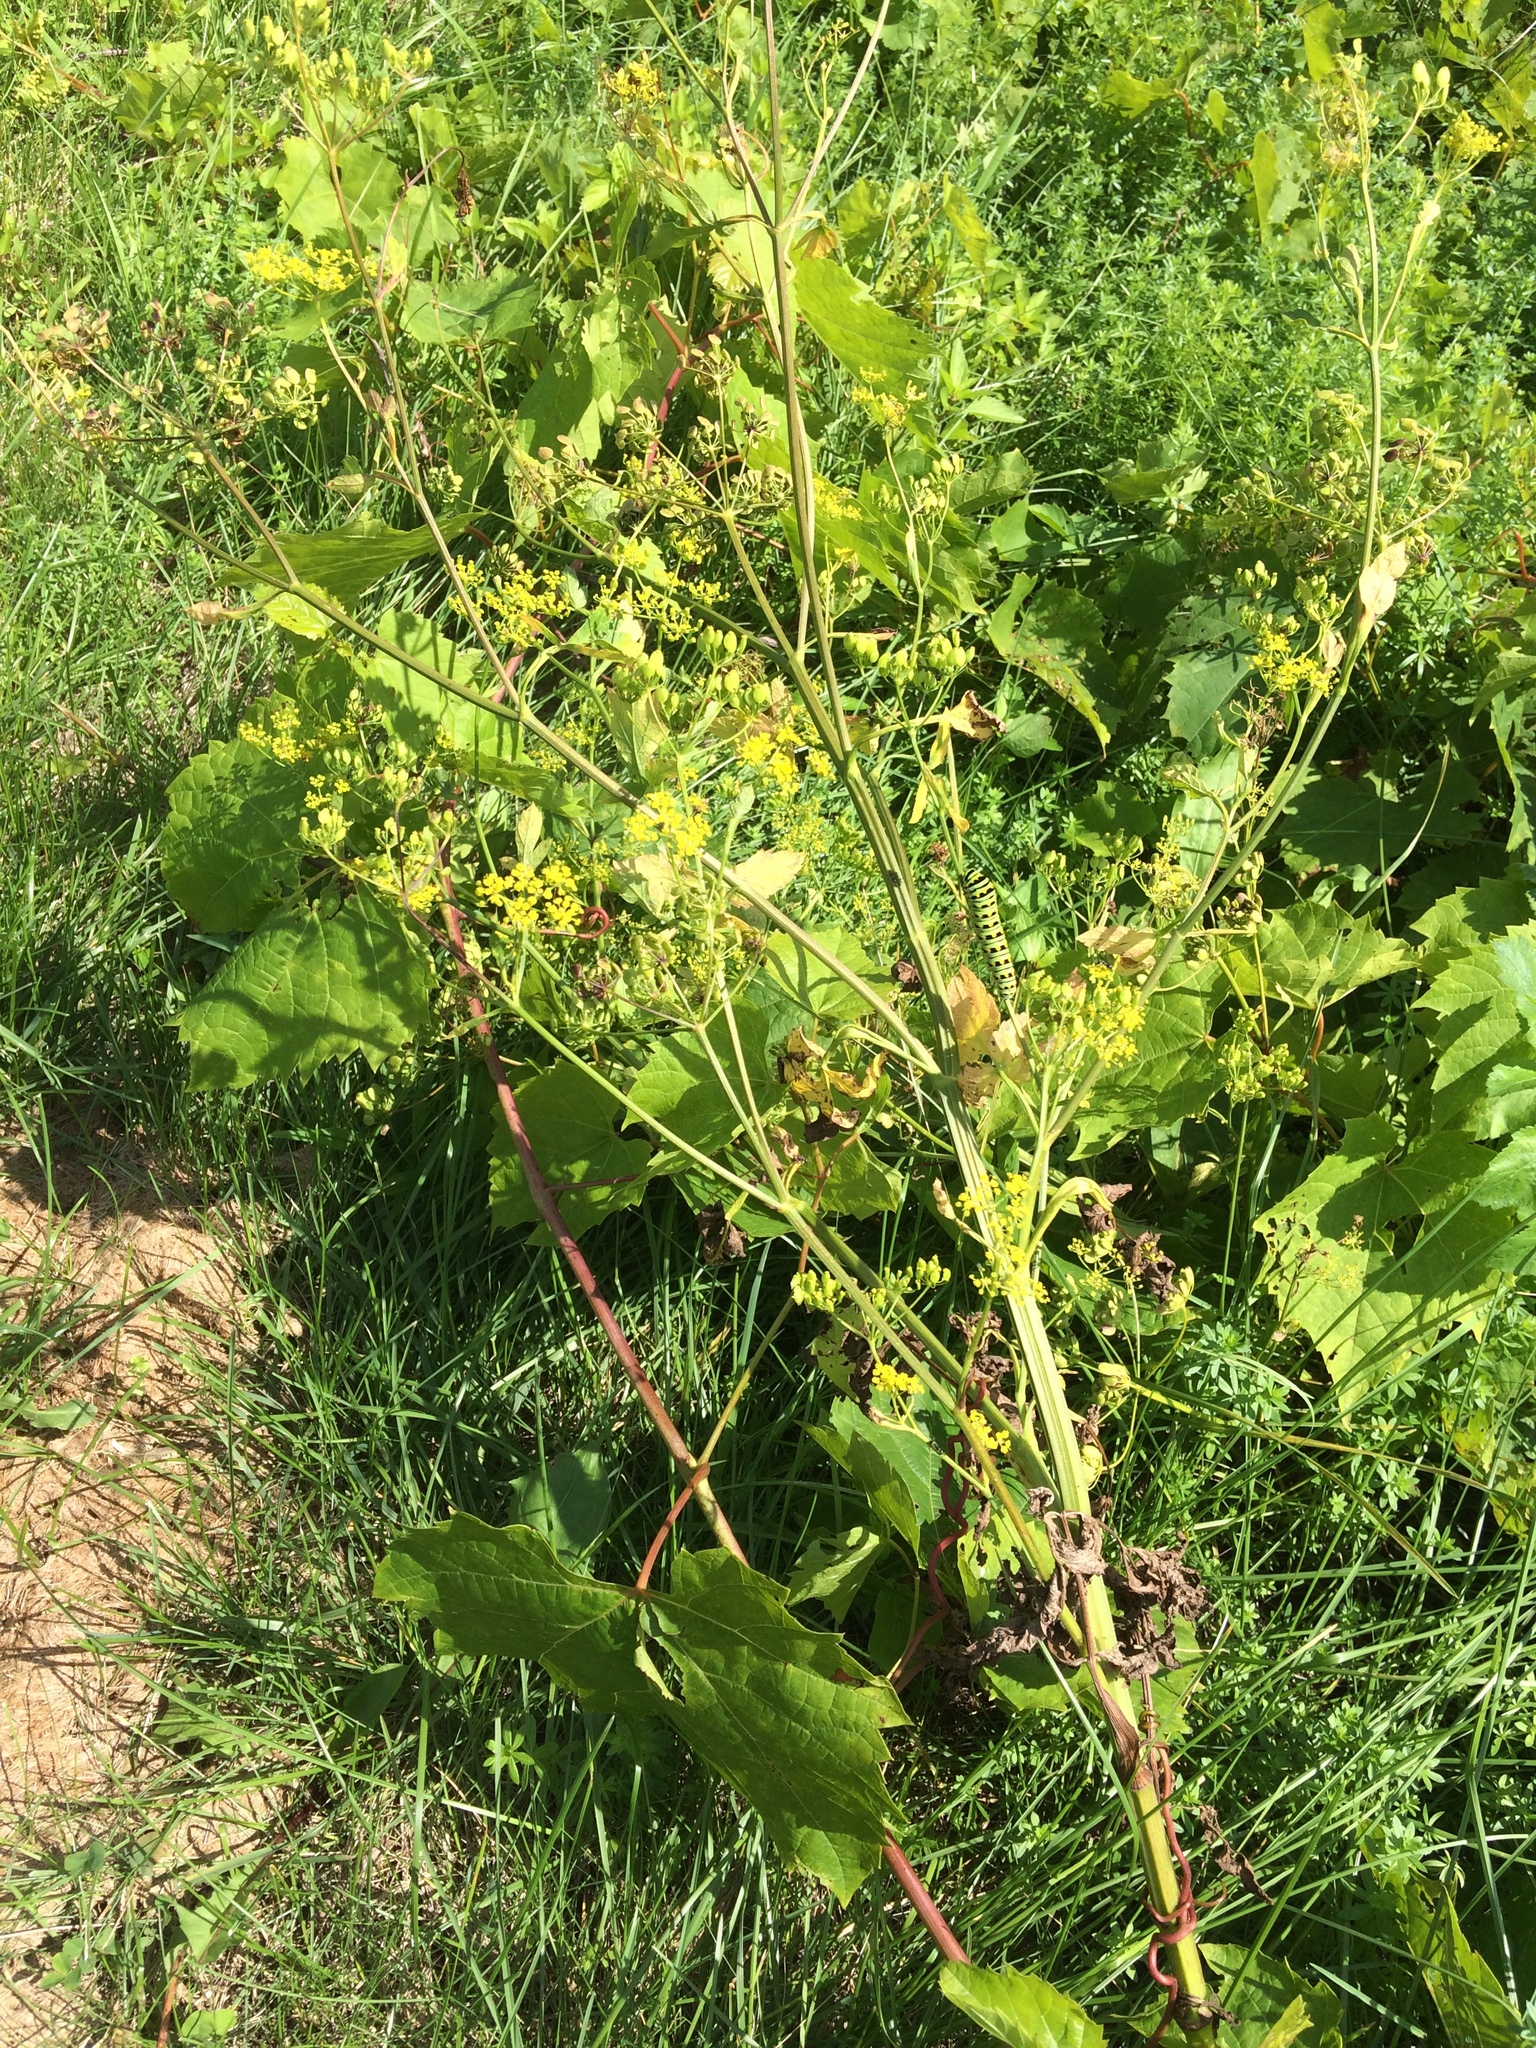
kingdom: Plantae
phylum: Tracheophyta
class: Magnoliopsida
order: Apiales
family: Apiaceae
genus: Pastinaca
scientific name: Pastinaca sativa
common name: Wild parsnip
